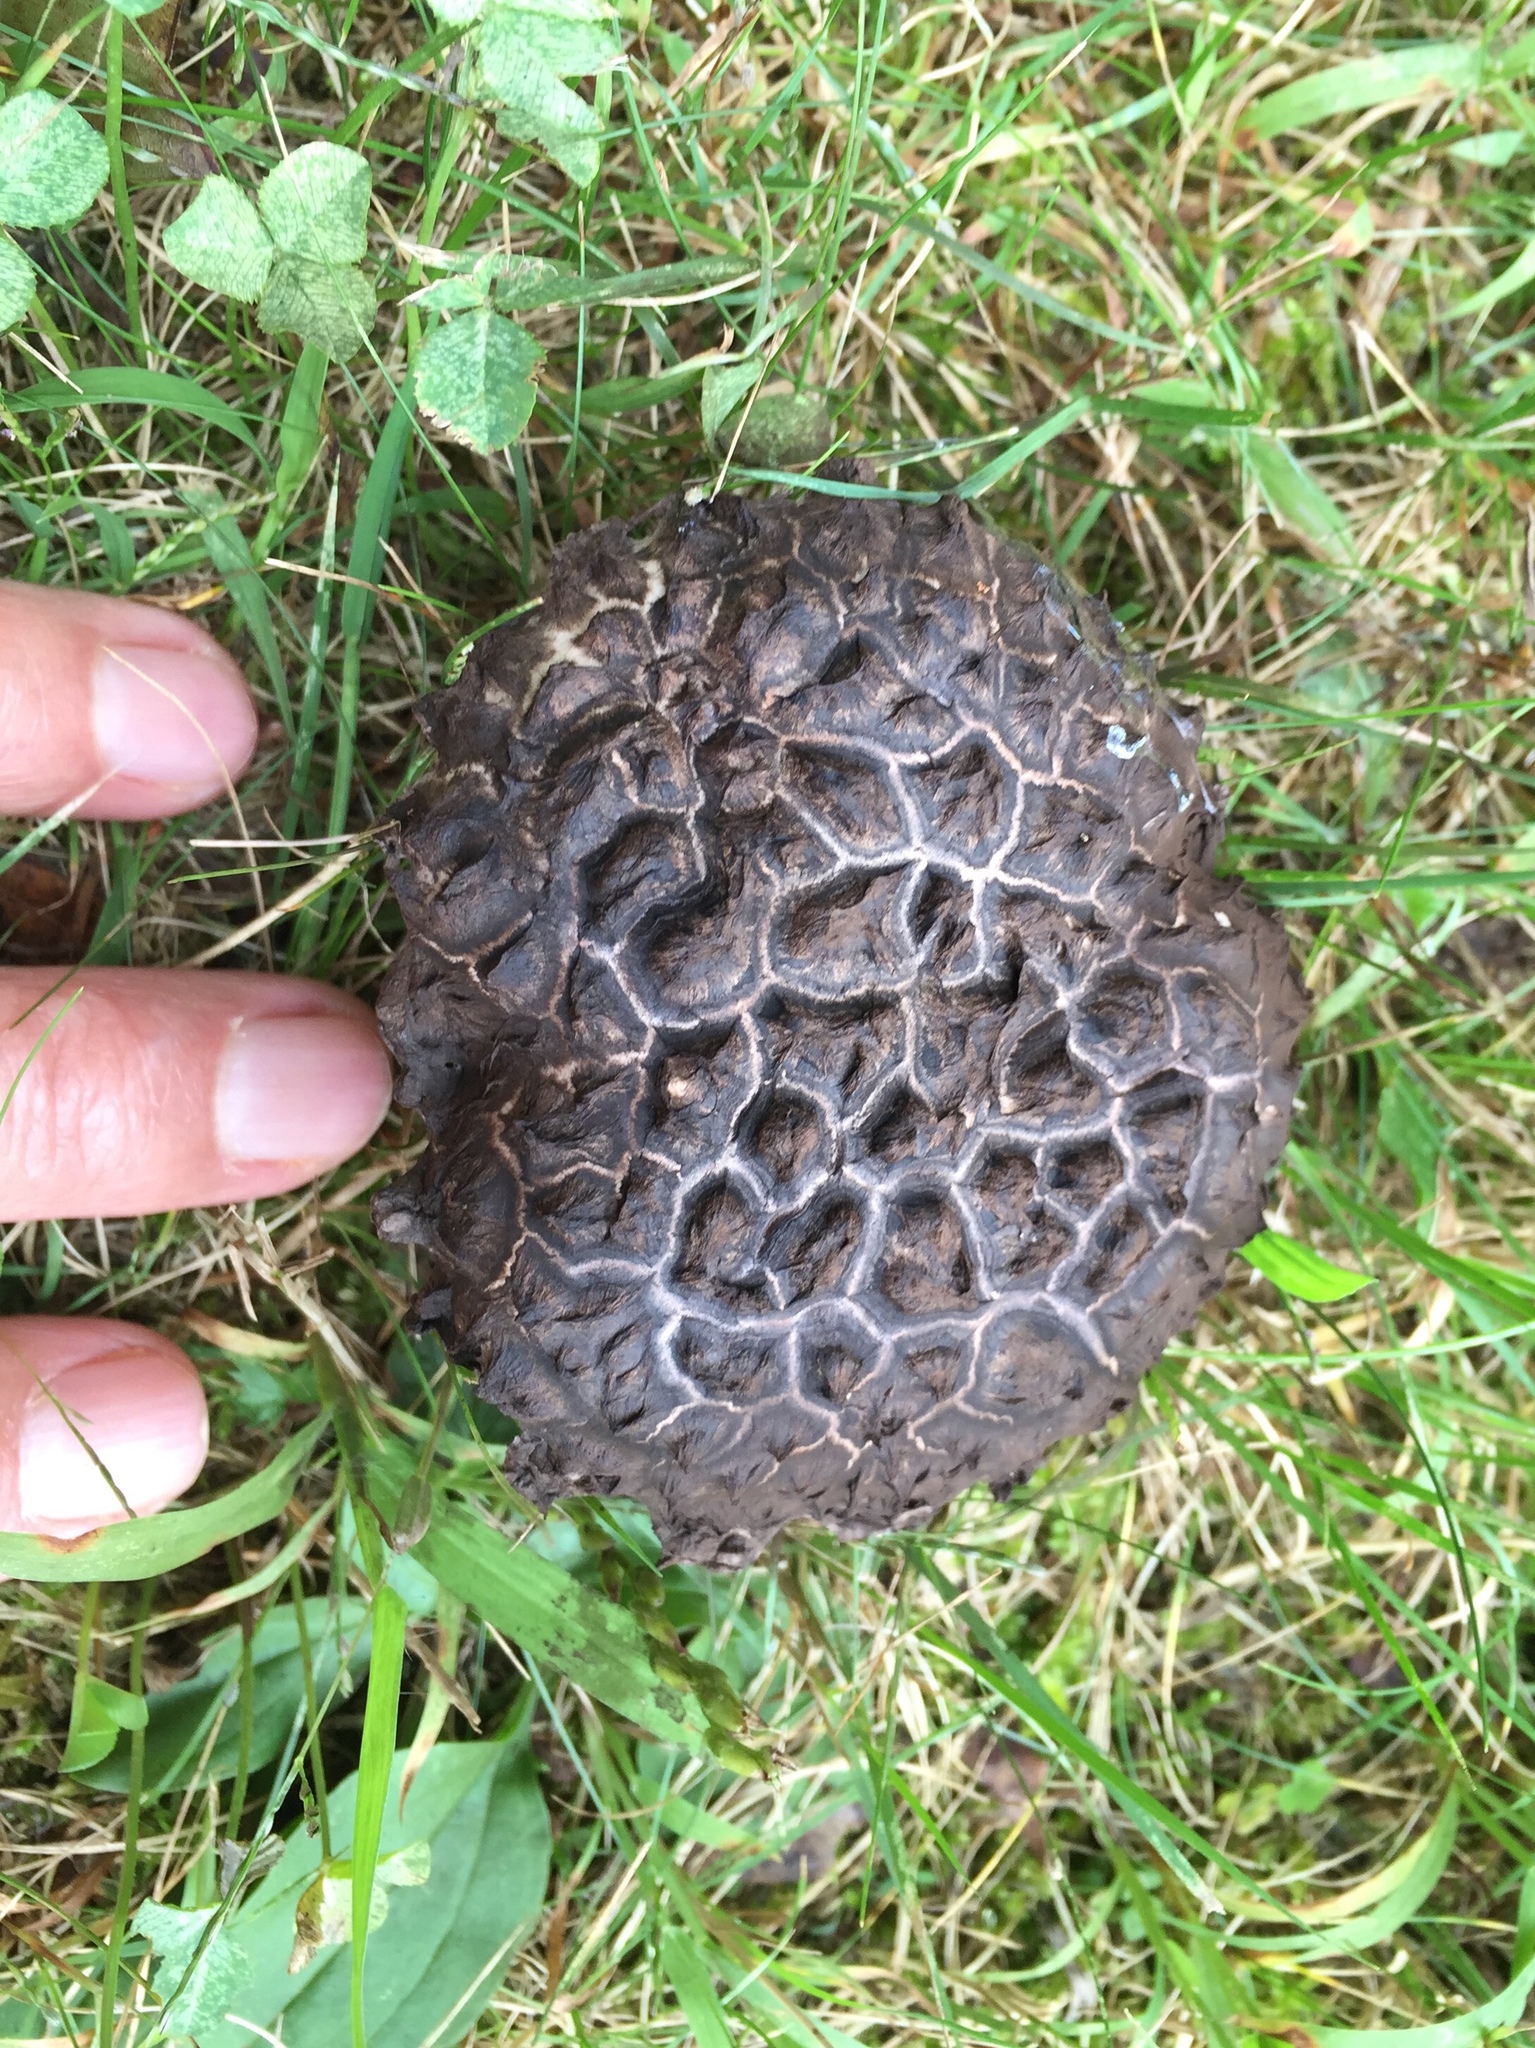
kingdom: Fungi
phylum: Basidiomycota
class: Agaricomycetes
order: Boletales
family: Boletaceae
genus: Strobilomyces
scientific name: Strobilomyces strobilaceus
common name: Old man of the woods
